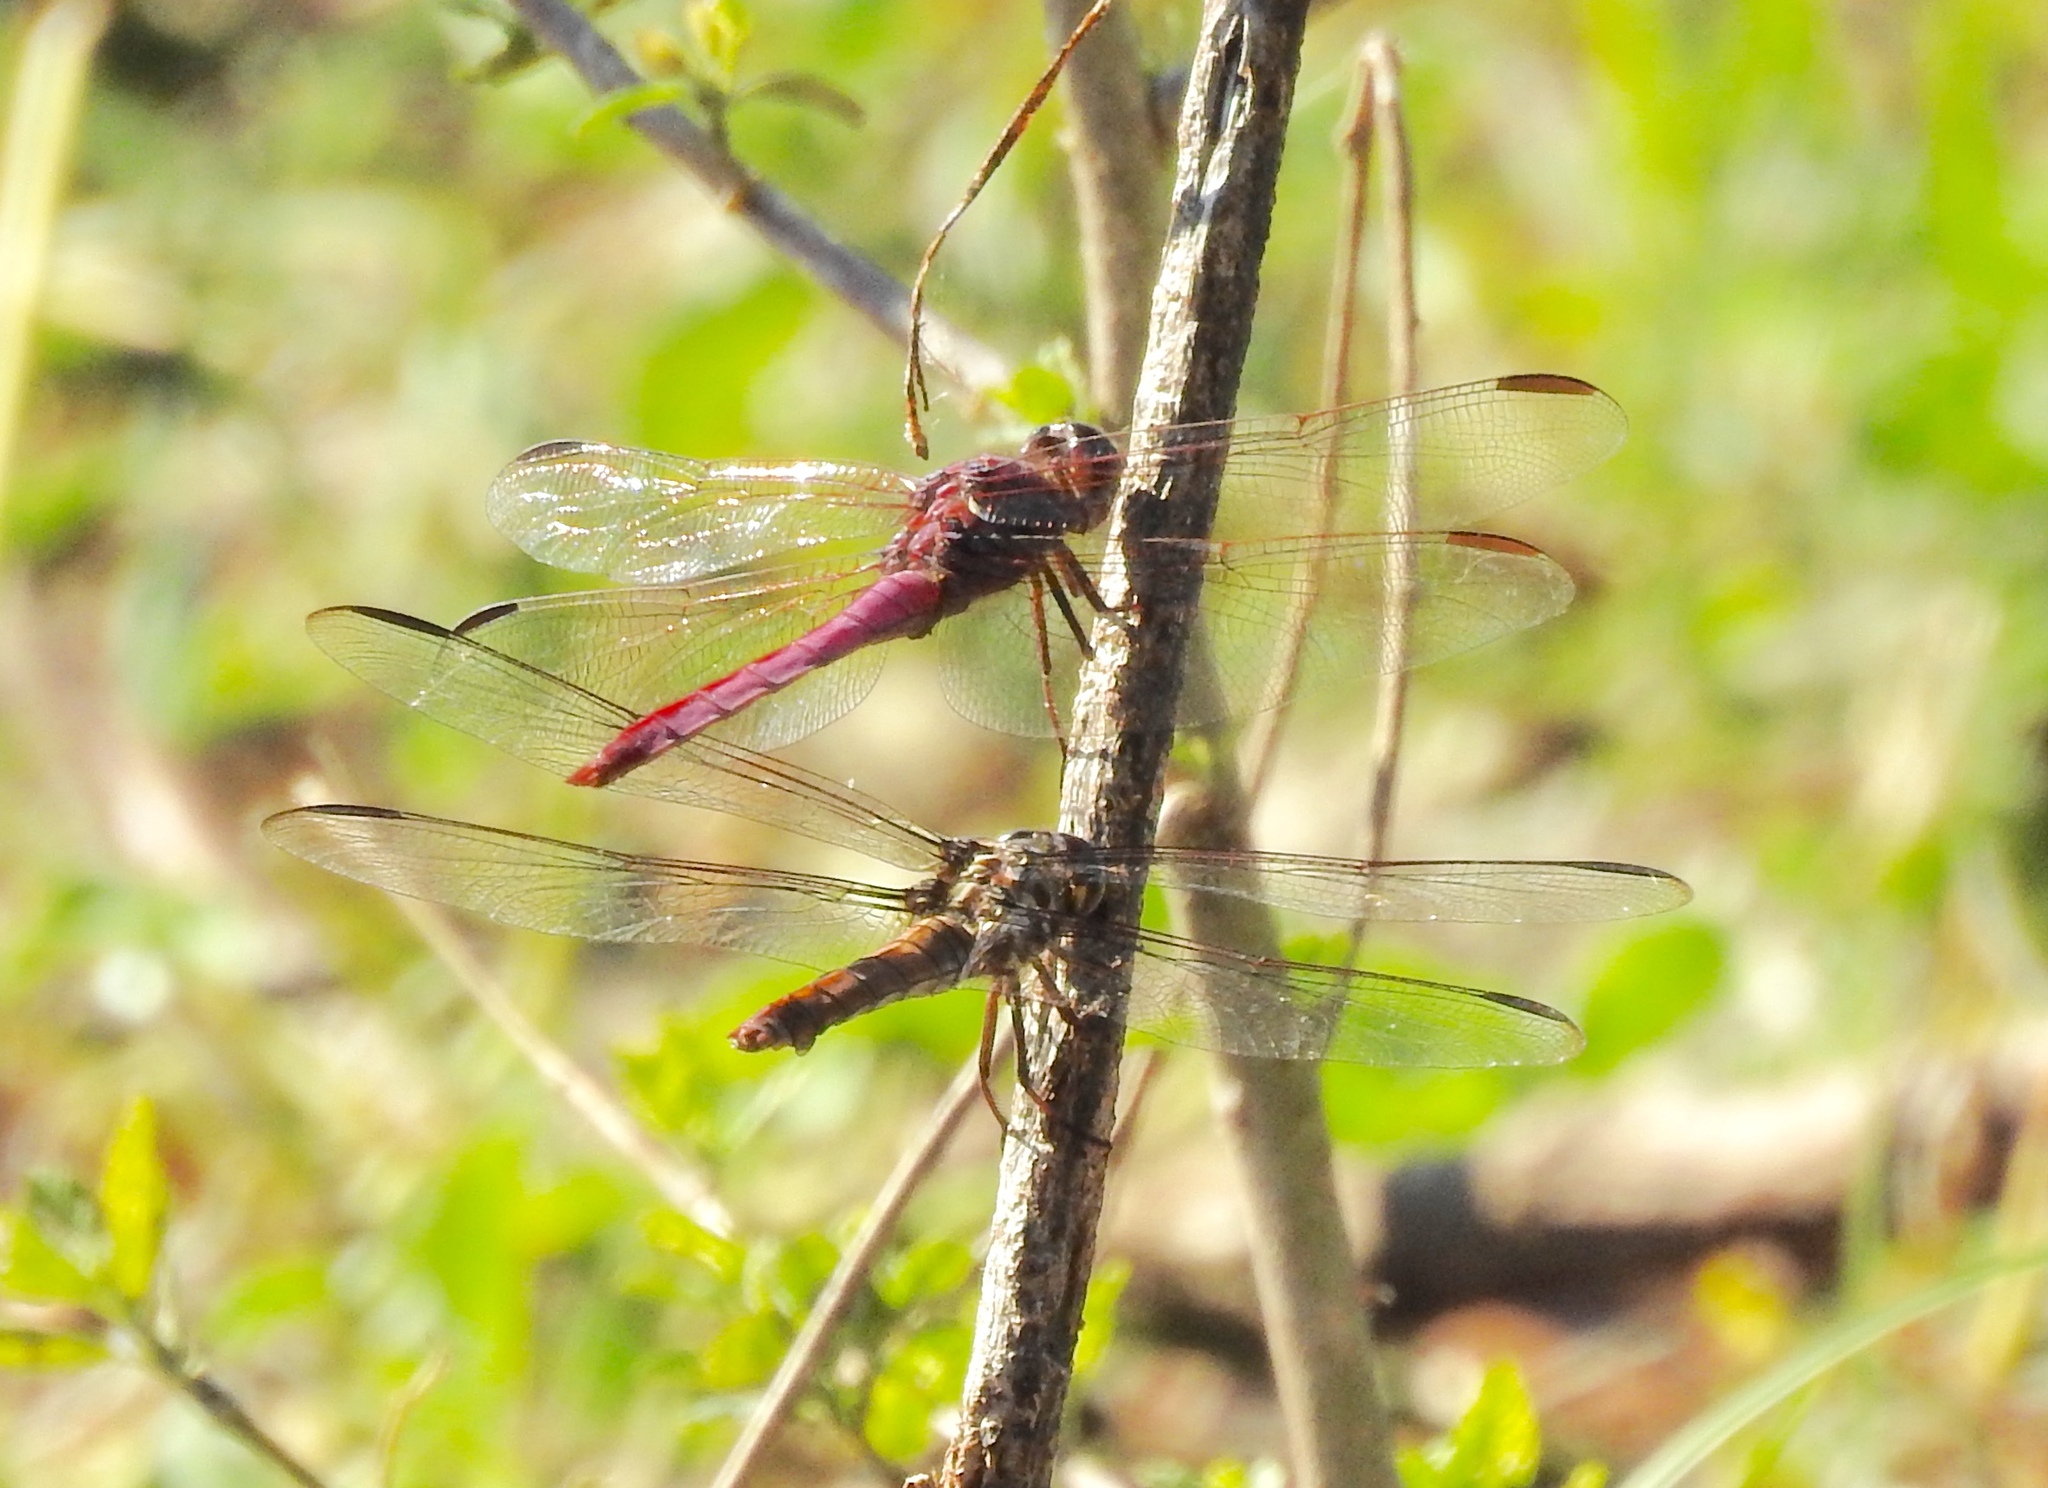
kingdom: Animalia
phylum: Arthropoda
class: Insecta
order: Odonata
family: Libellulidae
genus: Orthemis
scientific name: Orthemis ferruginea
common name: Roseate skimmer
